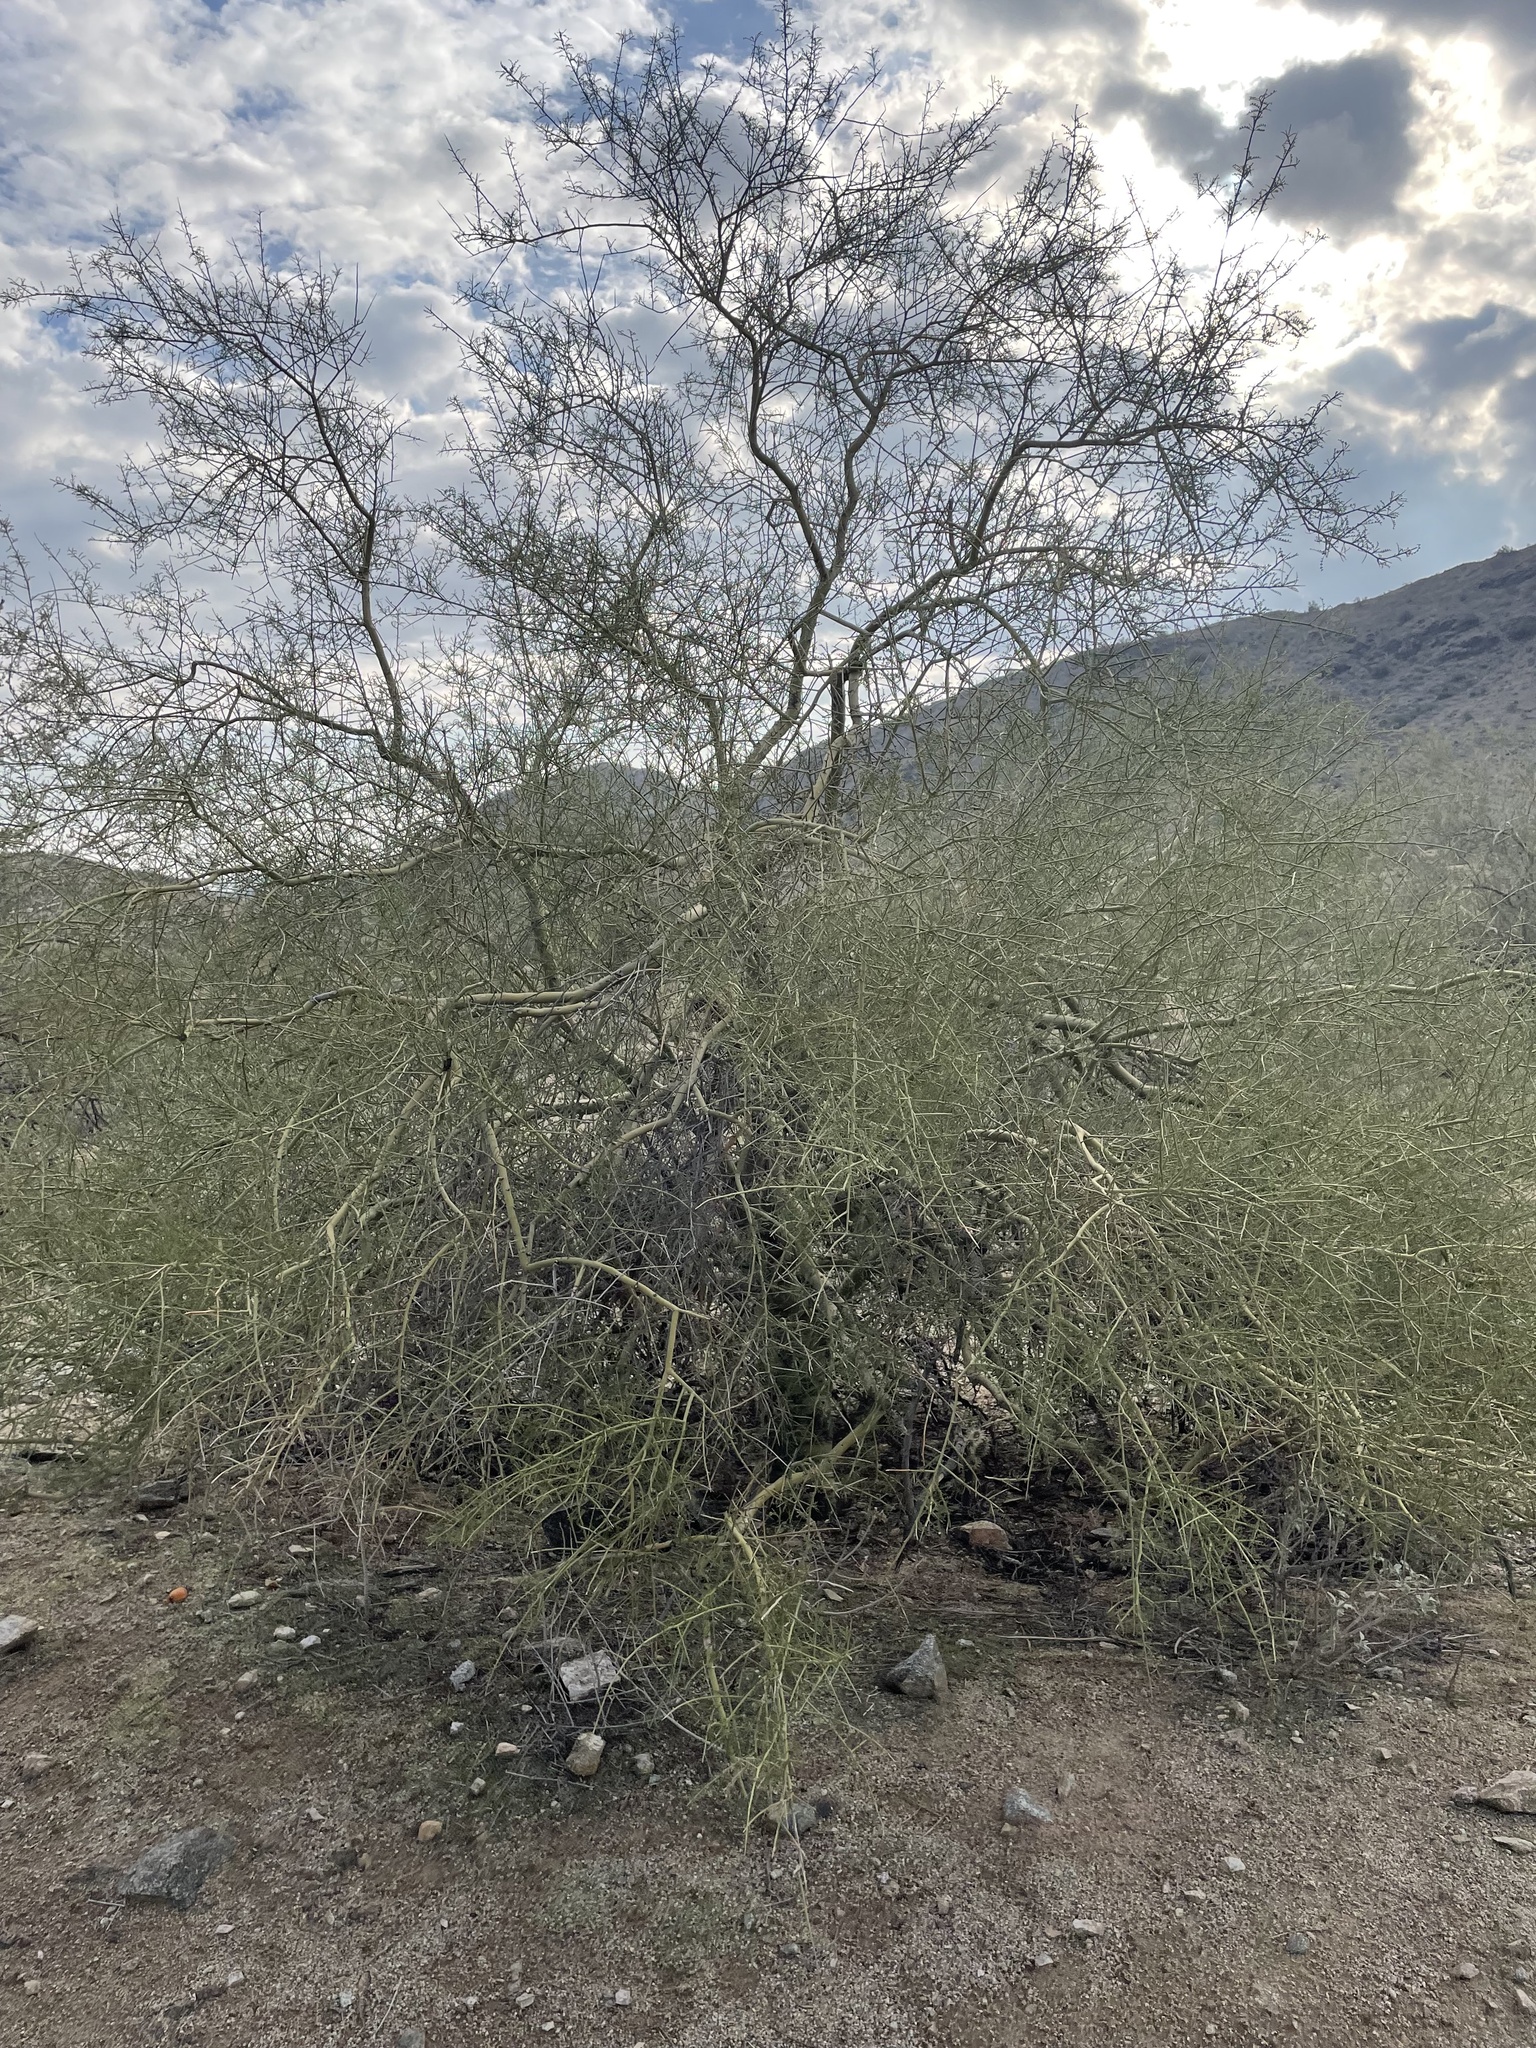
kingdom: Plantae
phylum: Tracheophyta
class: Magnoliopsida
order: Fabales
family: Fabaceae
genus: Parkinsonia
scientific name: Parkinsonia microphylla
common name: Yellow paloverde
